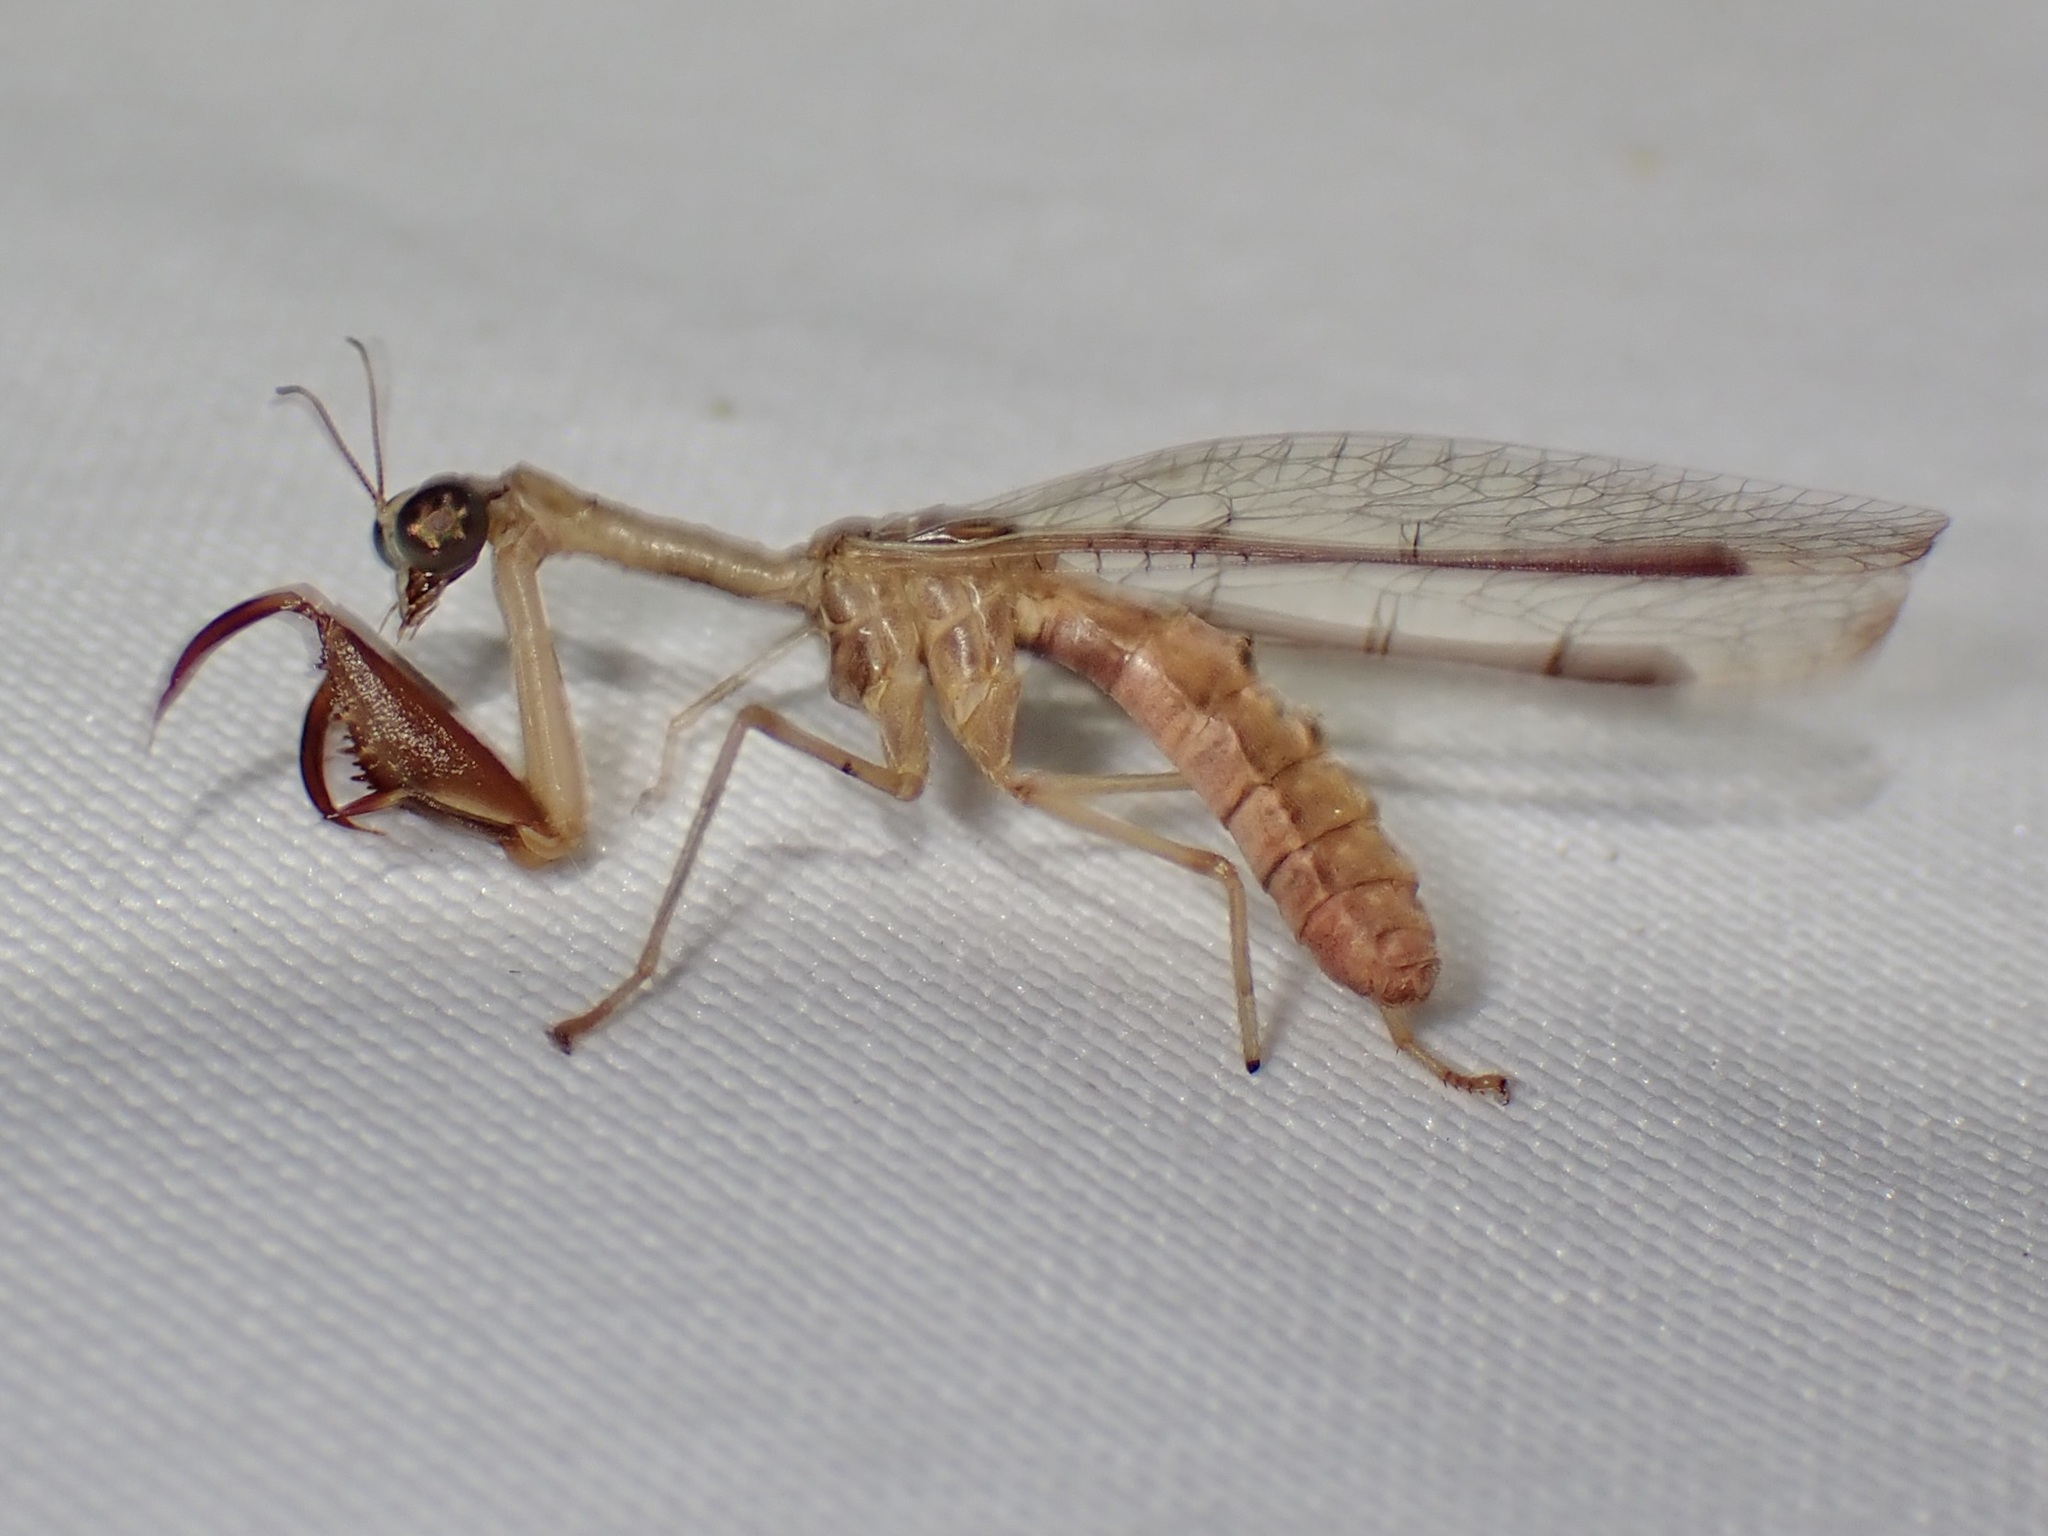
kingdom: Animalia
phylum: Arthropoda
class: Insecta
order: Neuroptera
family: Mantispidae
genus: Dicromantispa
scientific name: Dicromantispa interrupta
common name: Four-spotted mantidfly
